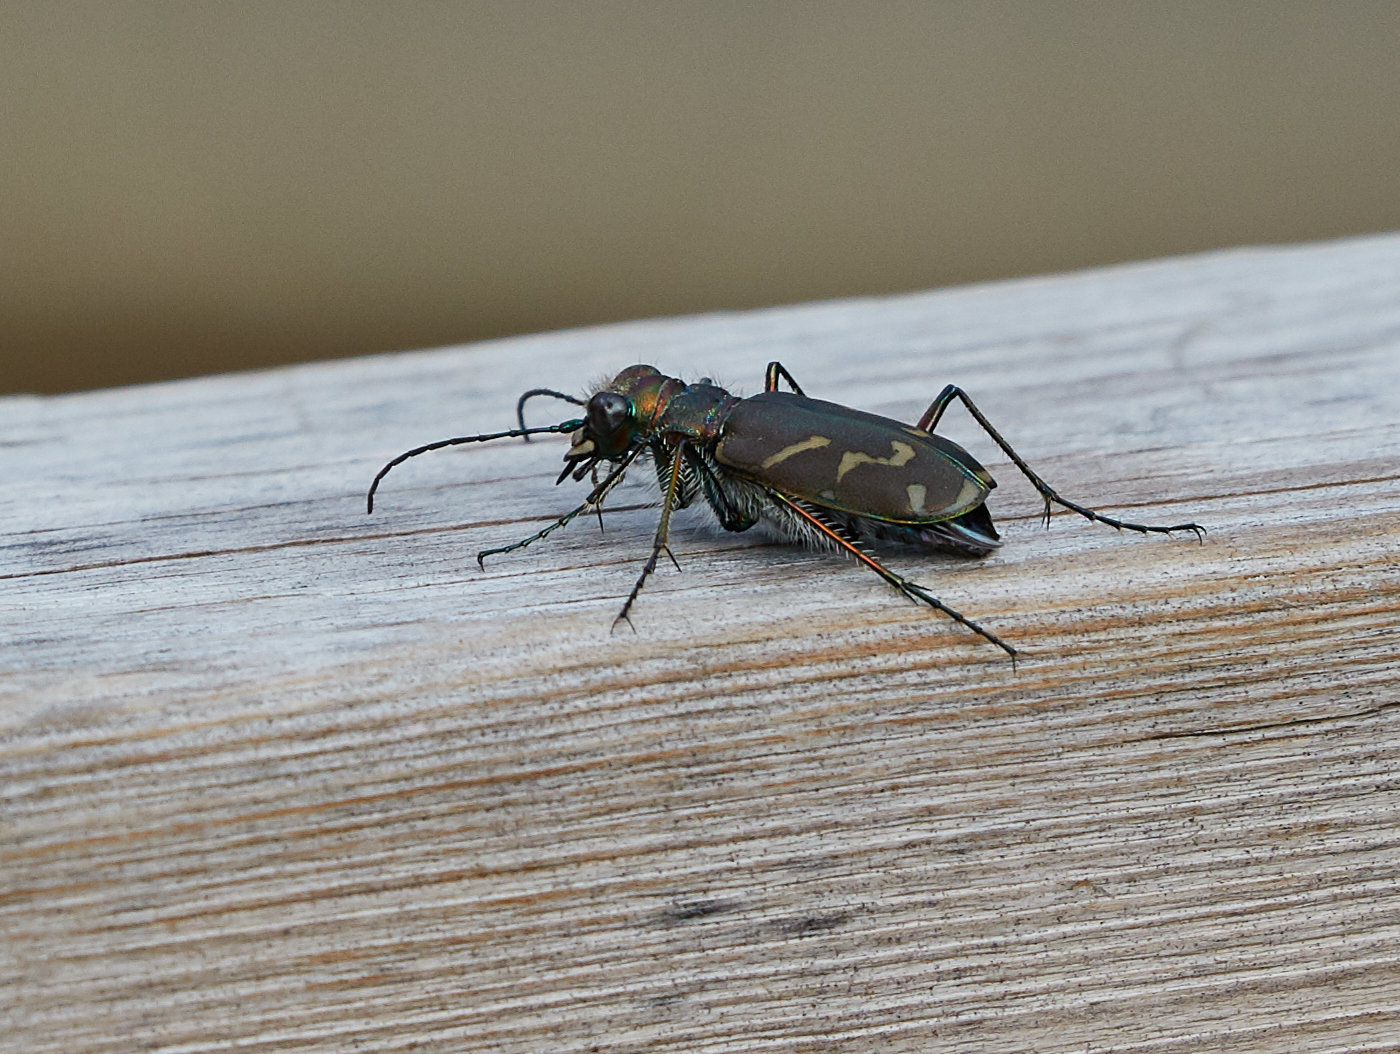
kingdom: Animalia
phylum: Arthropoda
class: Insecta
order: Coleoptera
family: Carabidae
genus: Cicindela
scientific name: Cicindela tranquebarica
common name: Oblique-lined tiger beetle
